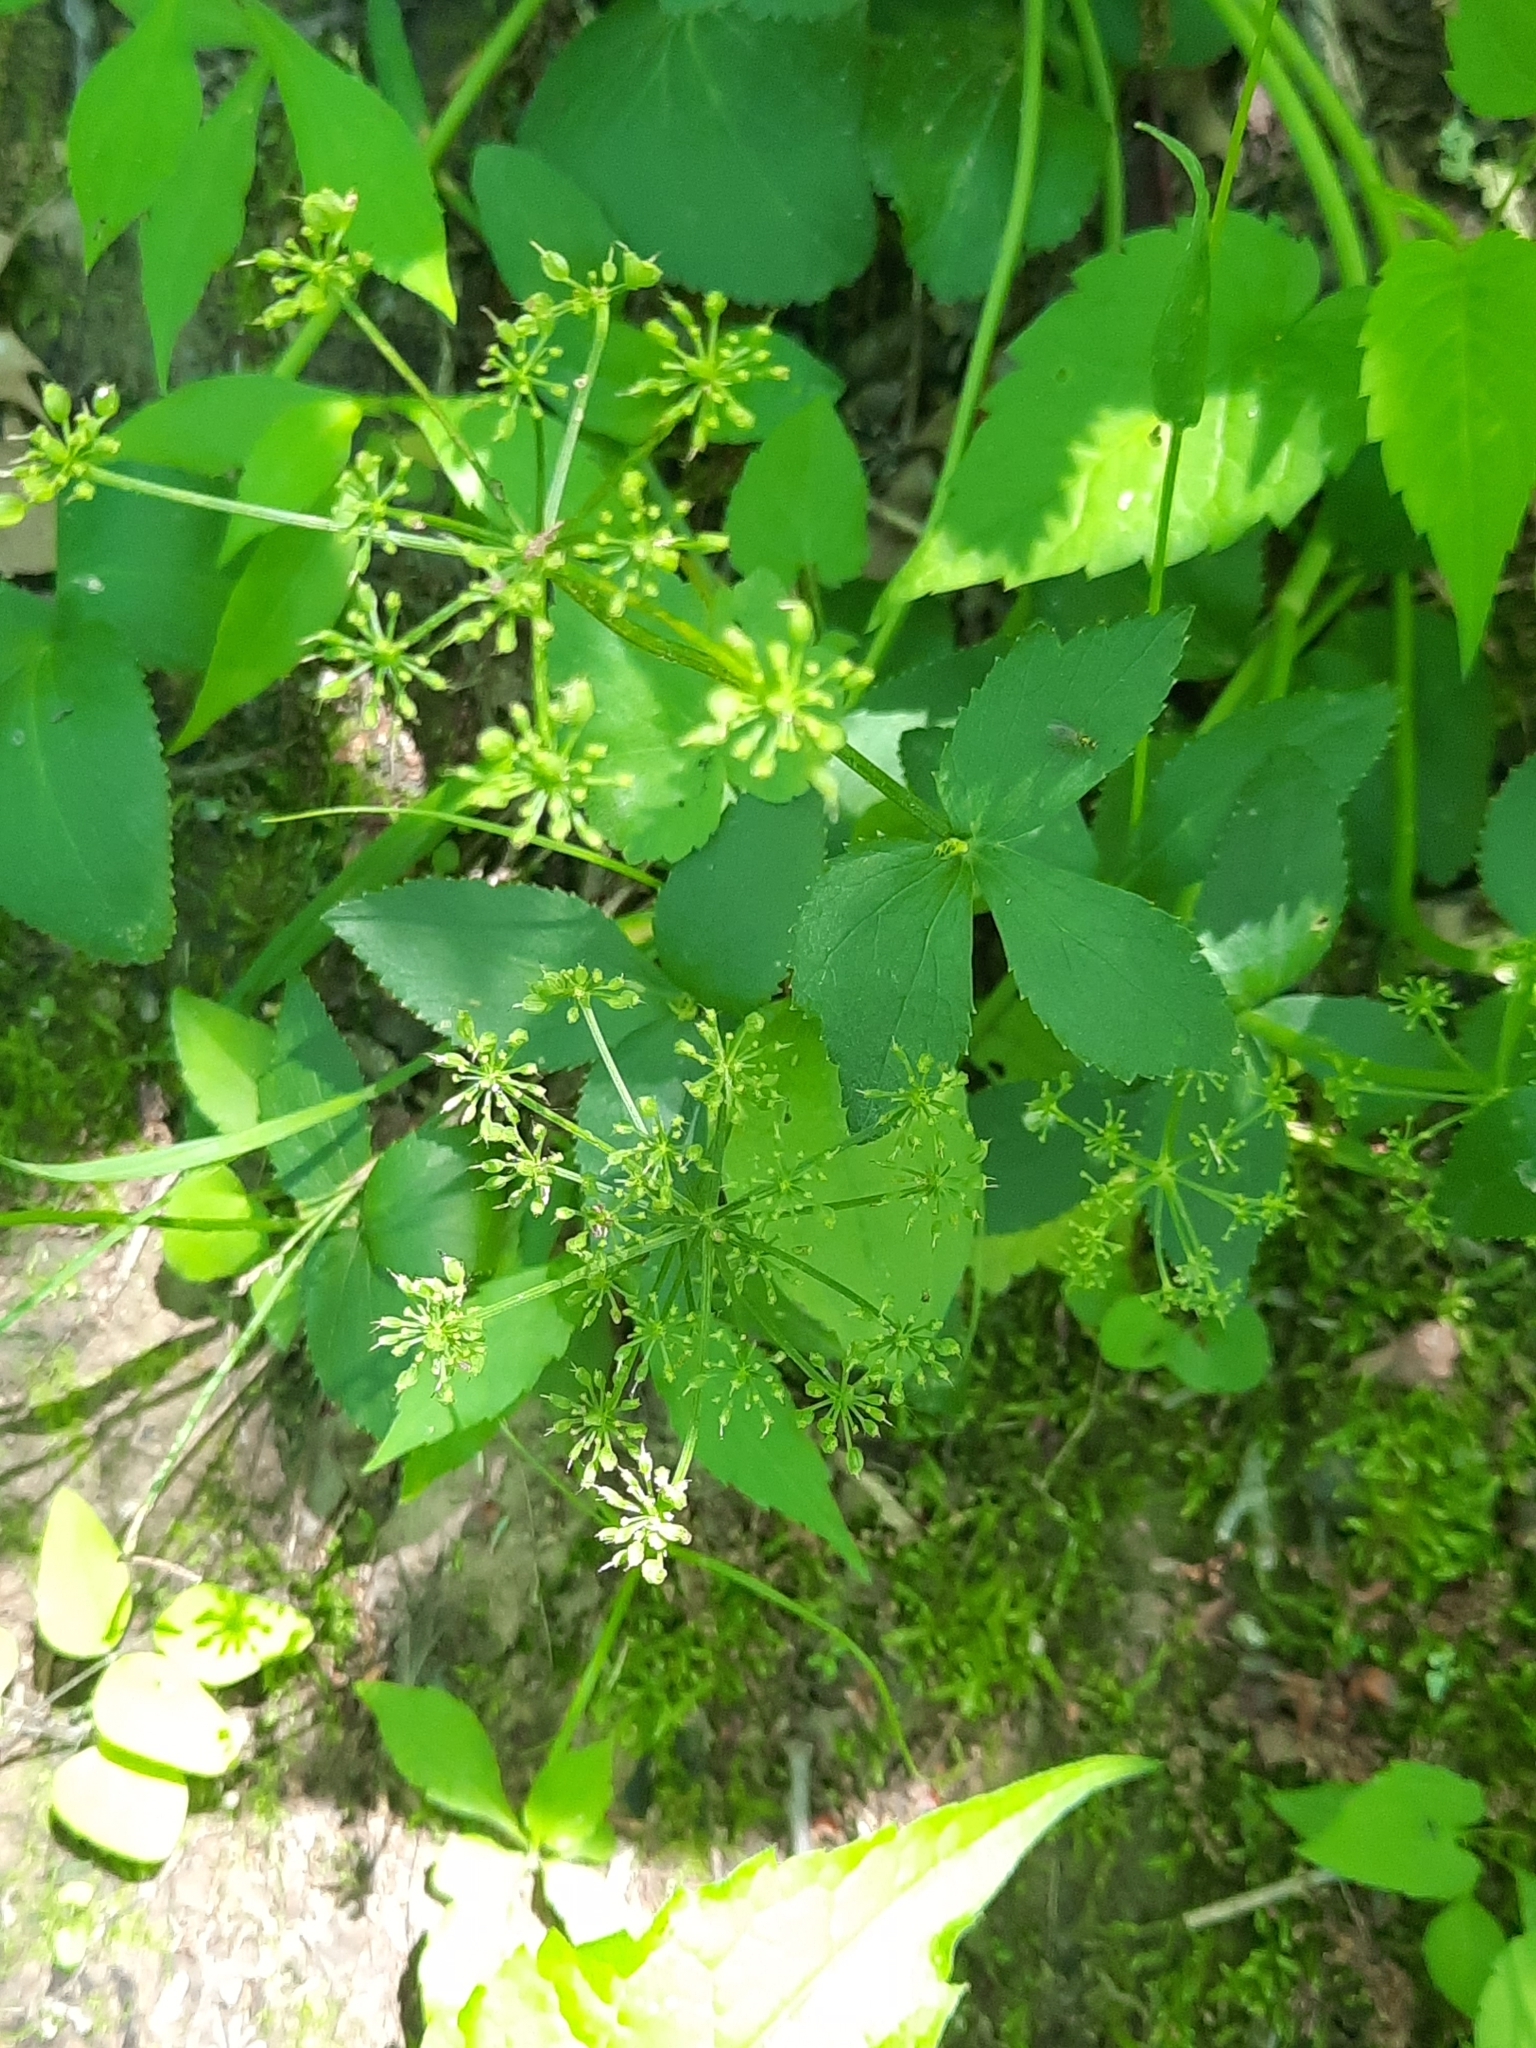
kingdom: Plantae
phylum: Tracheophyta
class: Magnoliopsida
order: Apiales
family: Apiaceae
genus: Zizia
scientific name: Zizia aurea
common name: Golden alexanders
